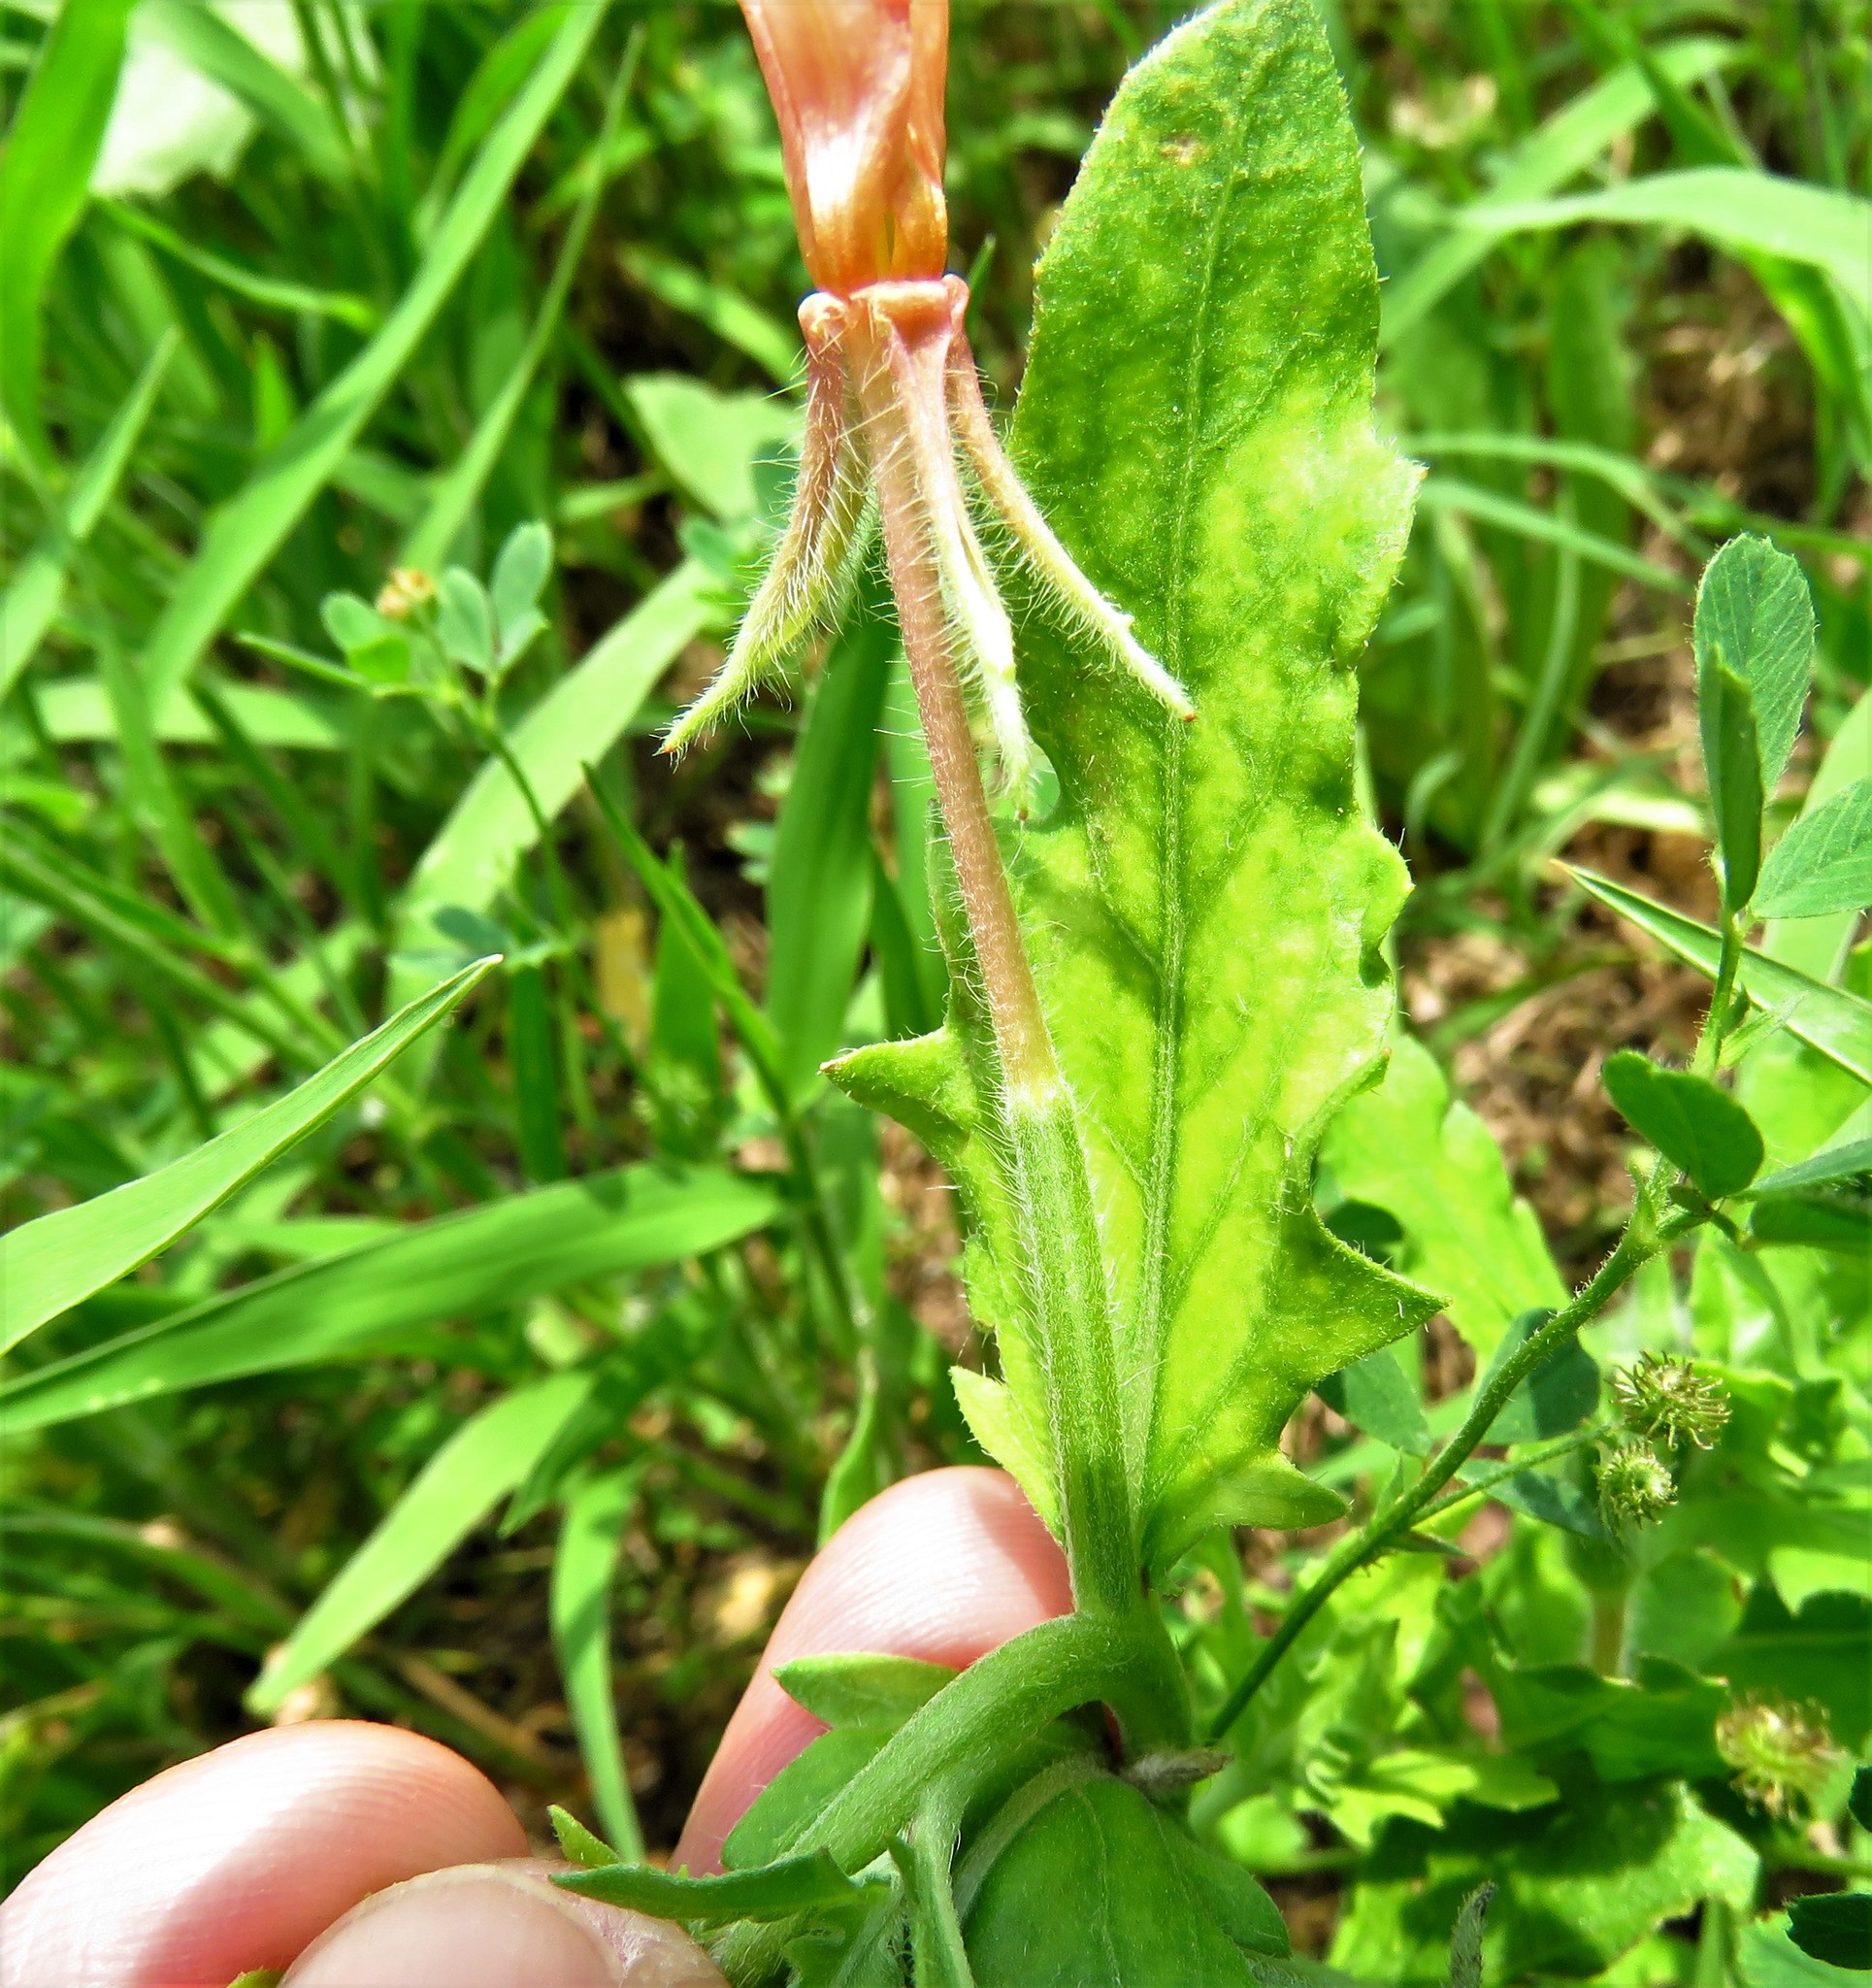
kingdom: Plantae
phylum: Tracheophyta
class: Magnoliopsida
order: Myrtales
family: Onagraceae
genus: Oenothera
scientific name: Oenothera laciniata
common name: Cut-leaved evening-primrose
